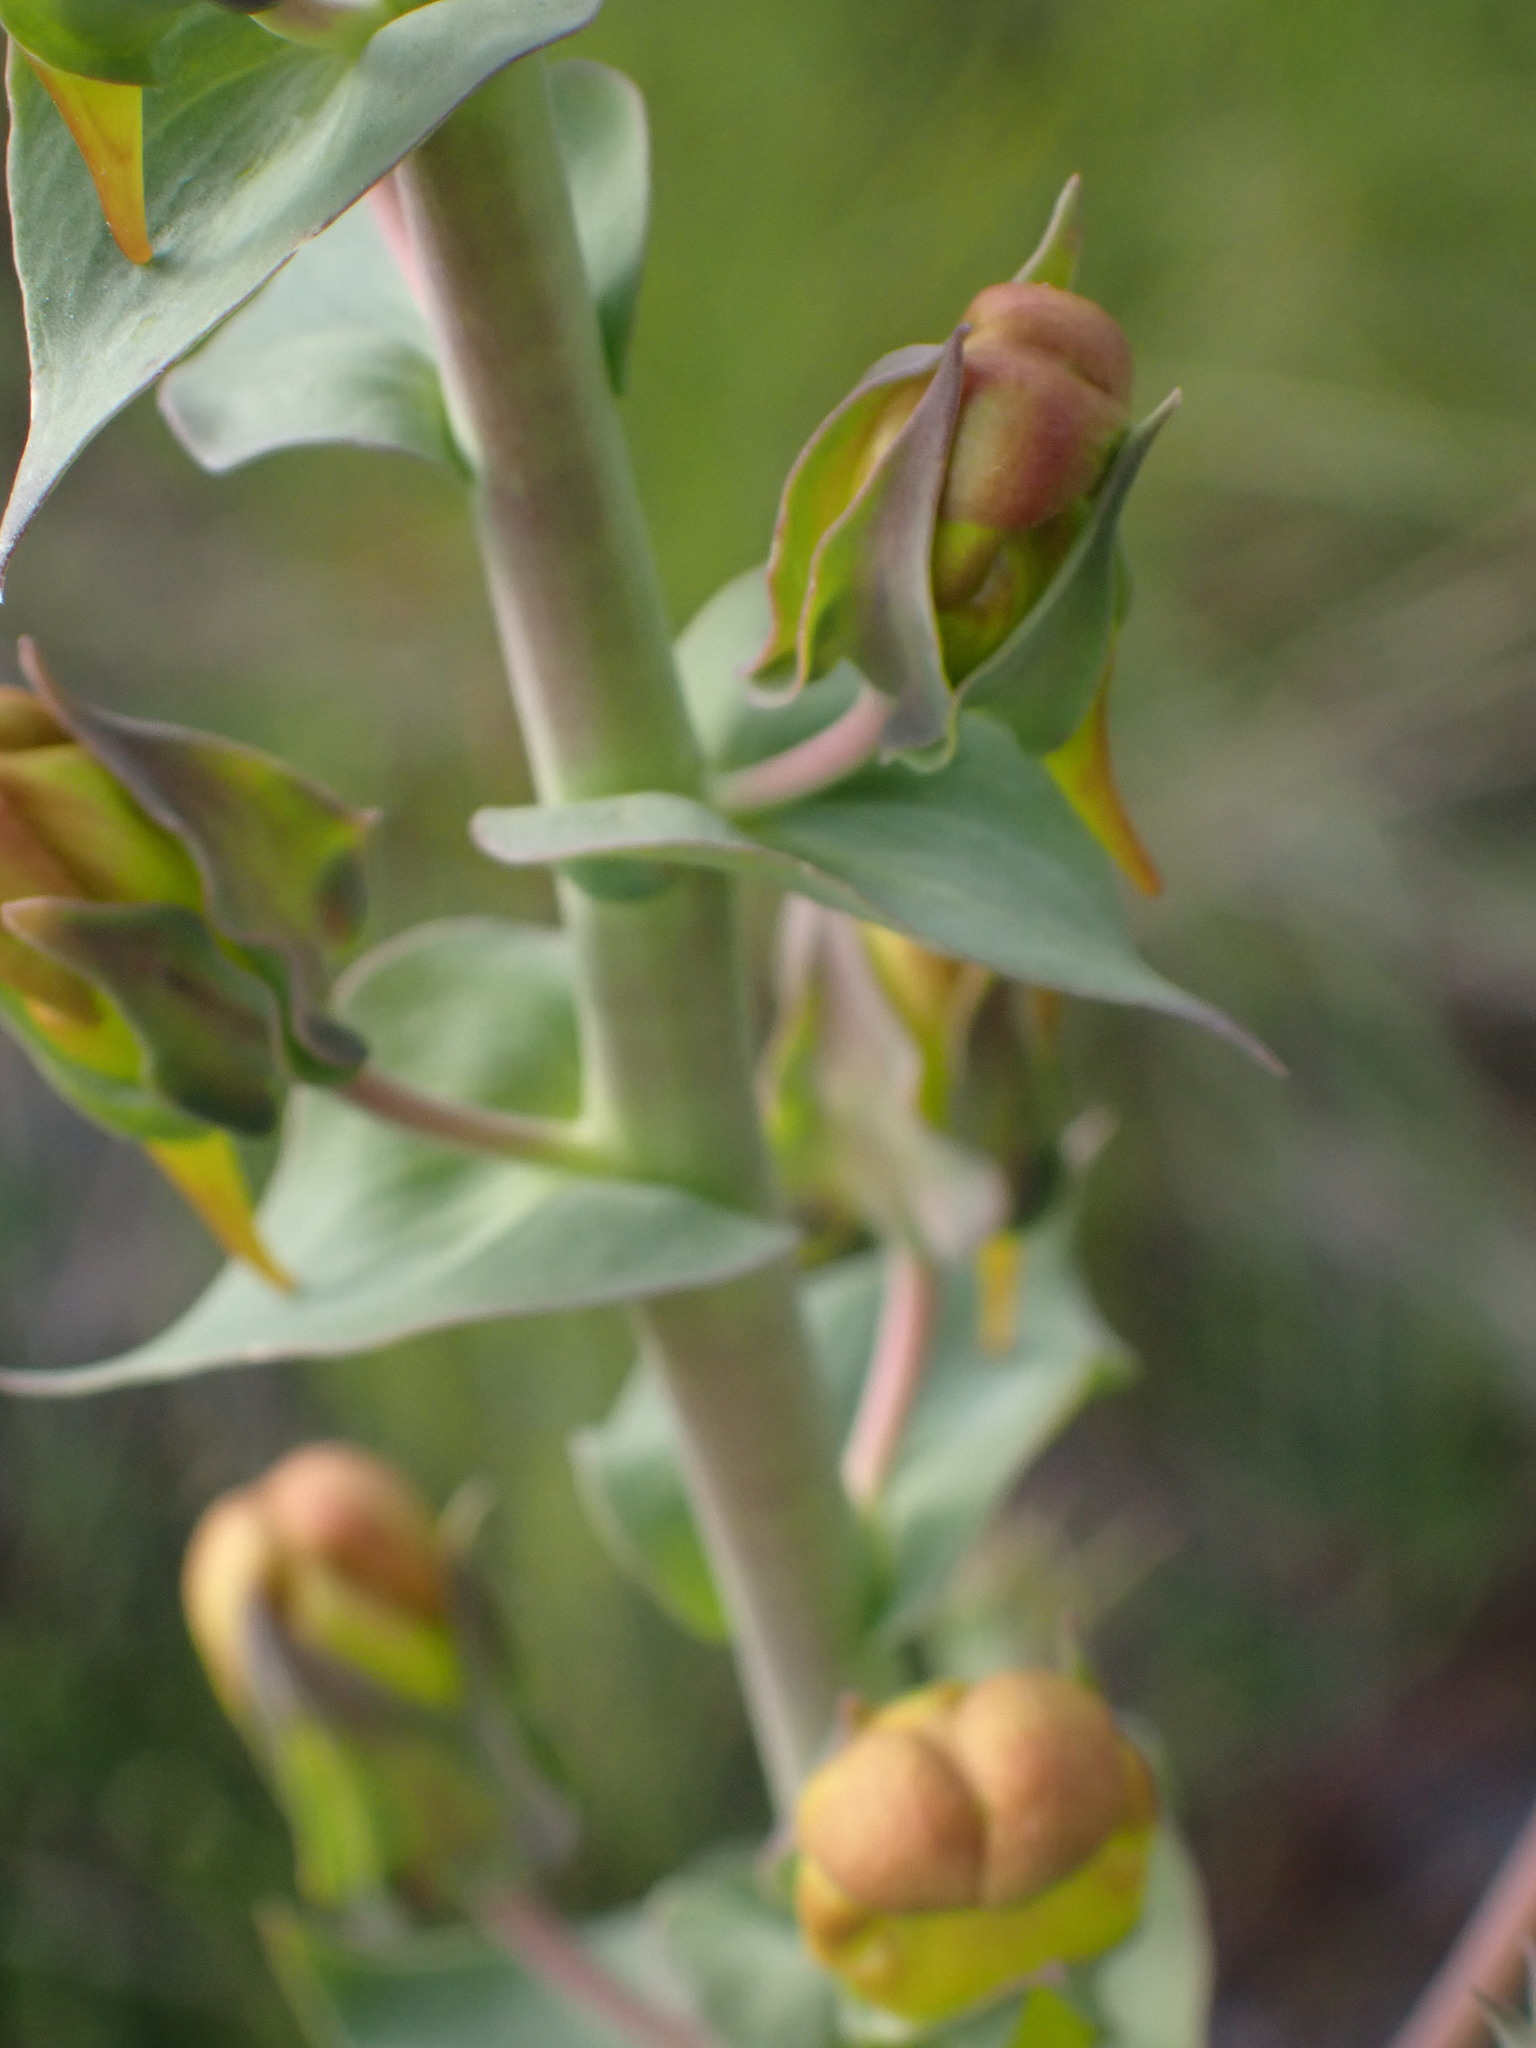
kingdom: Plantae
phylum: Tracheophyta
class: Magnoliopsida
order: Lamiales
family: Plantaginaceae
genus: Linaria
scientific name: Linaria dalmatica
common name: Dalmatian toadflax
